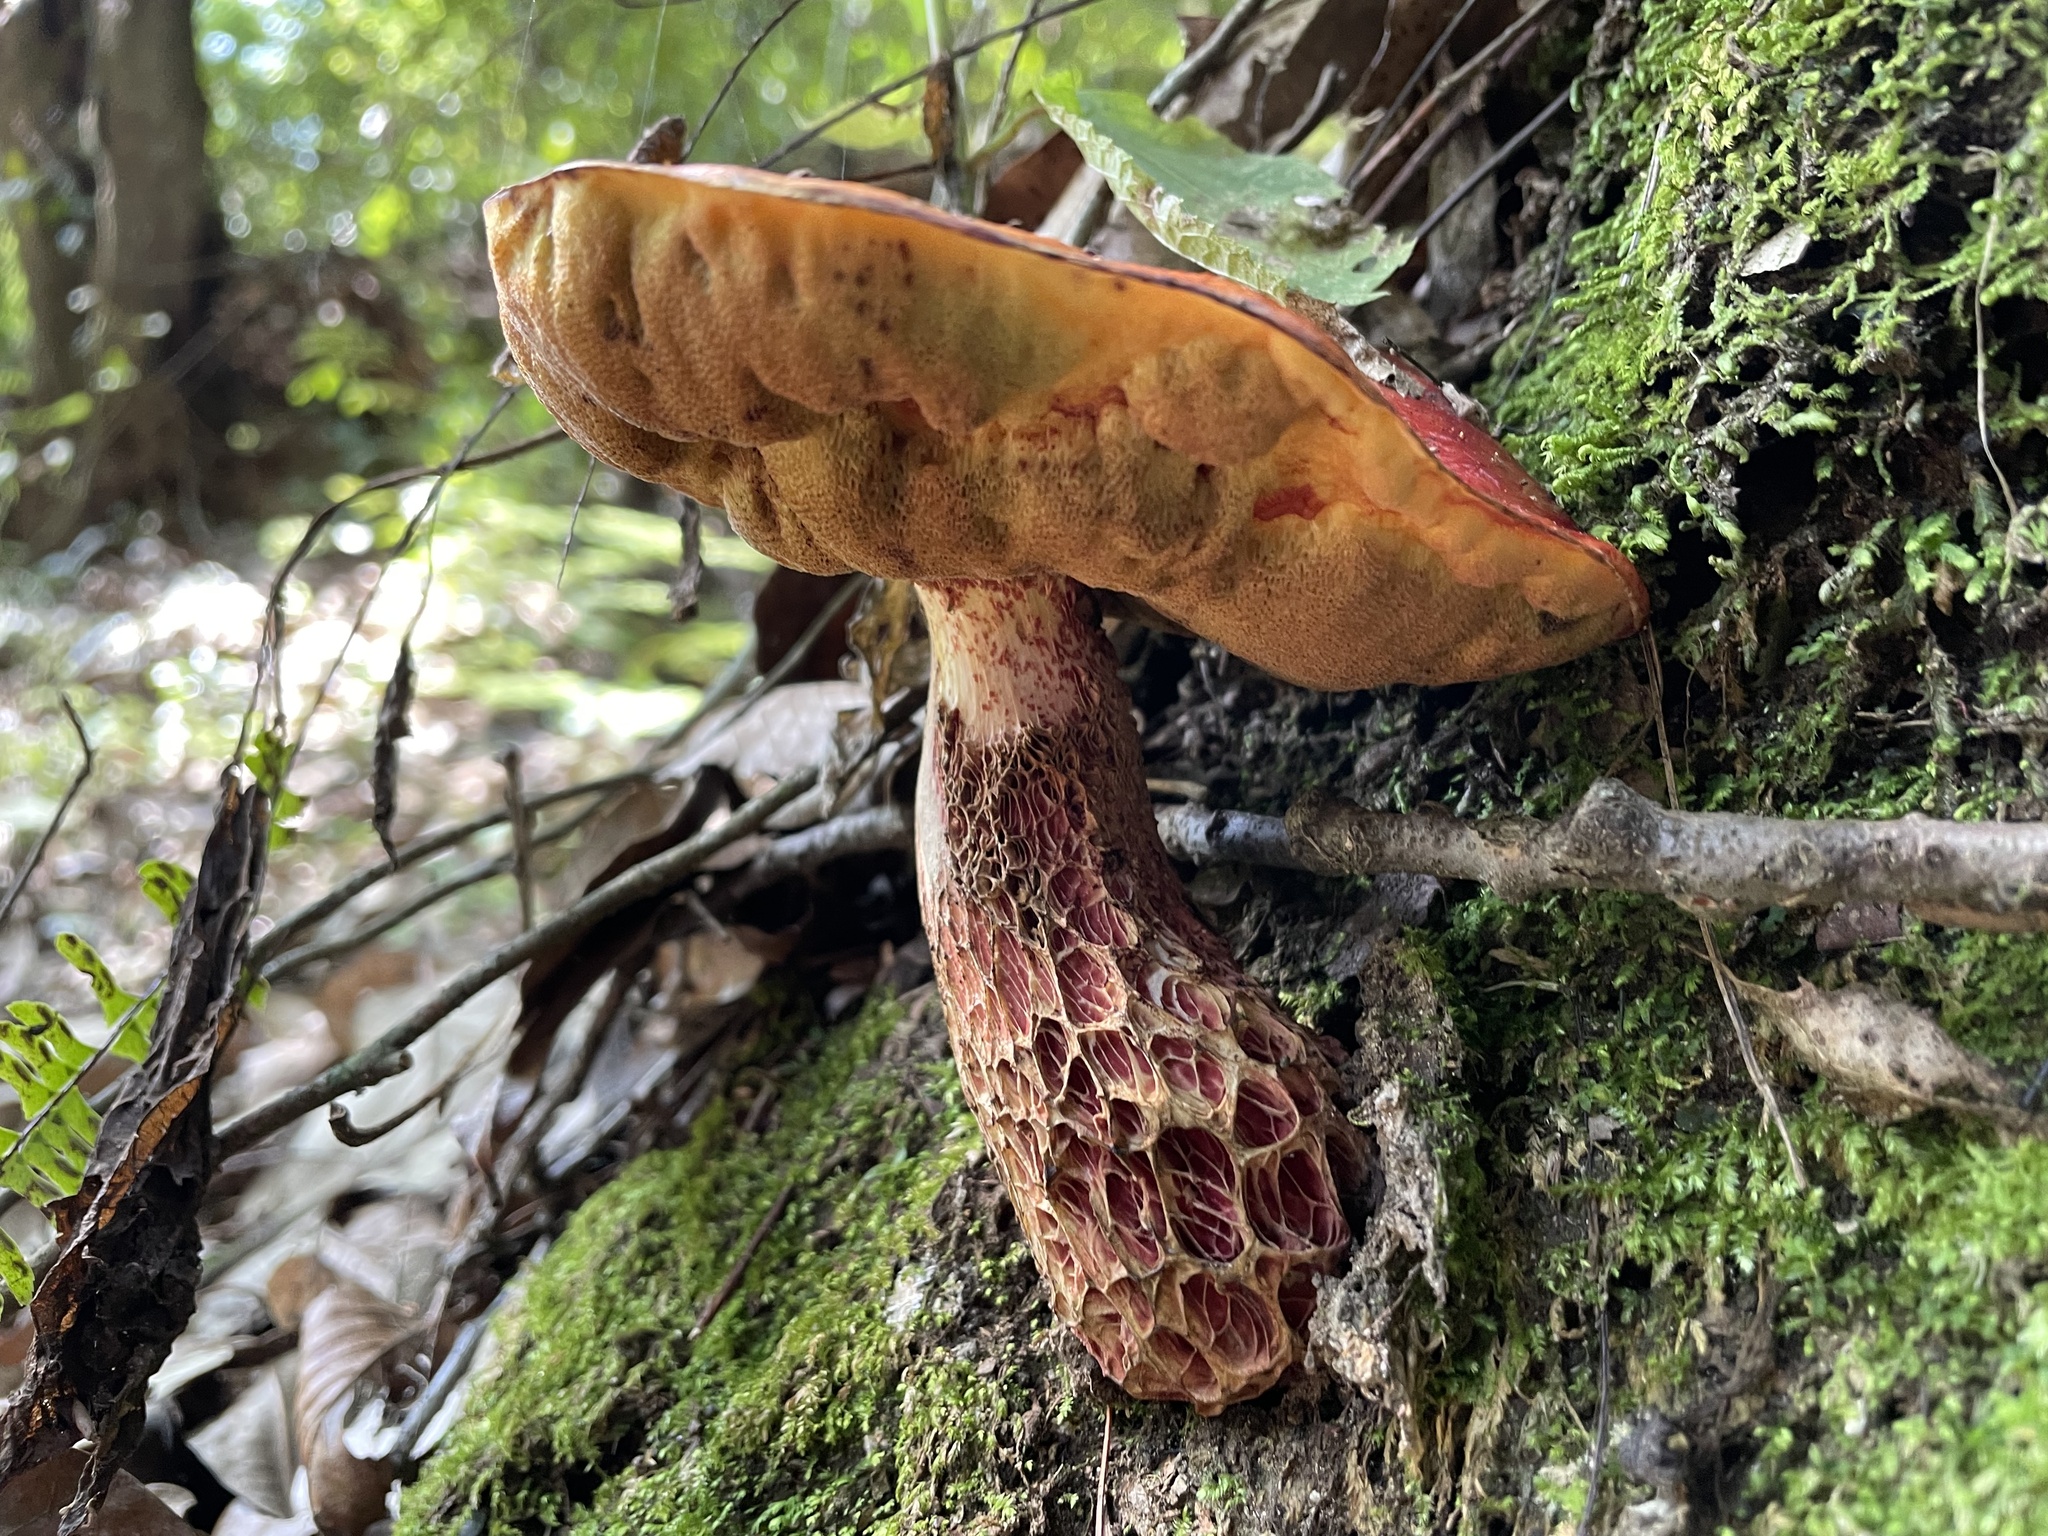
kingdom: Fungi
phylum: Basidiomycota
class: Agaricomycetes
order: Boletales
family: Boletaceae
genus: Butyriboletus
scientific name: Butyriboletus frostii
